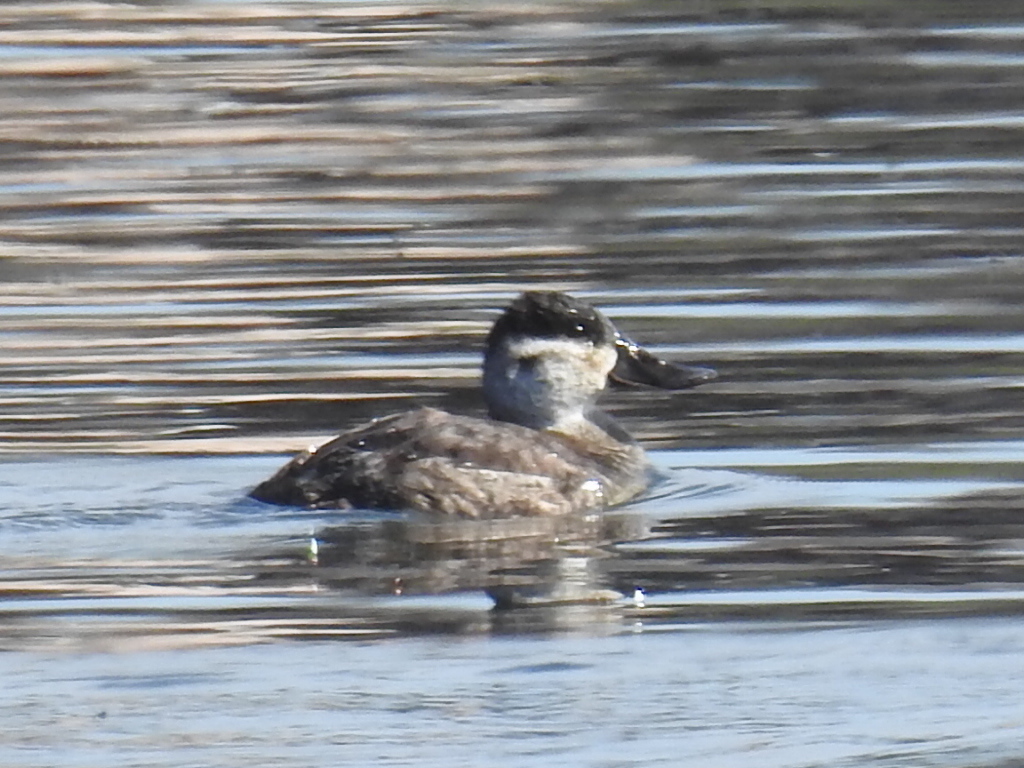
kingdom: Animalia
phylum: Chordata
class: Aves
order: Anseriformes
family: Anatidae
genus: Oxyura
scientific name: Oxyura jamaicensis
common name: Ruddy duck
